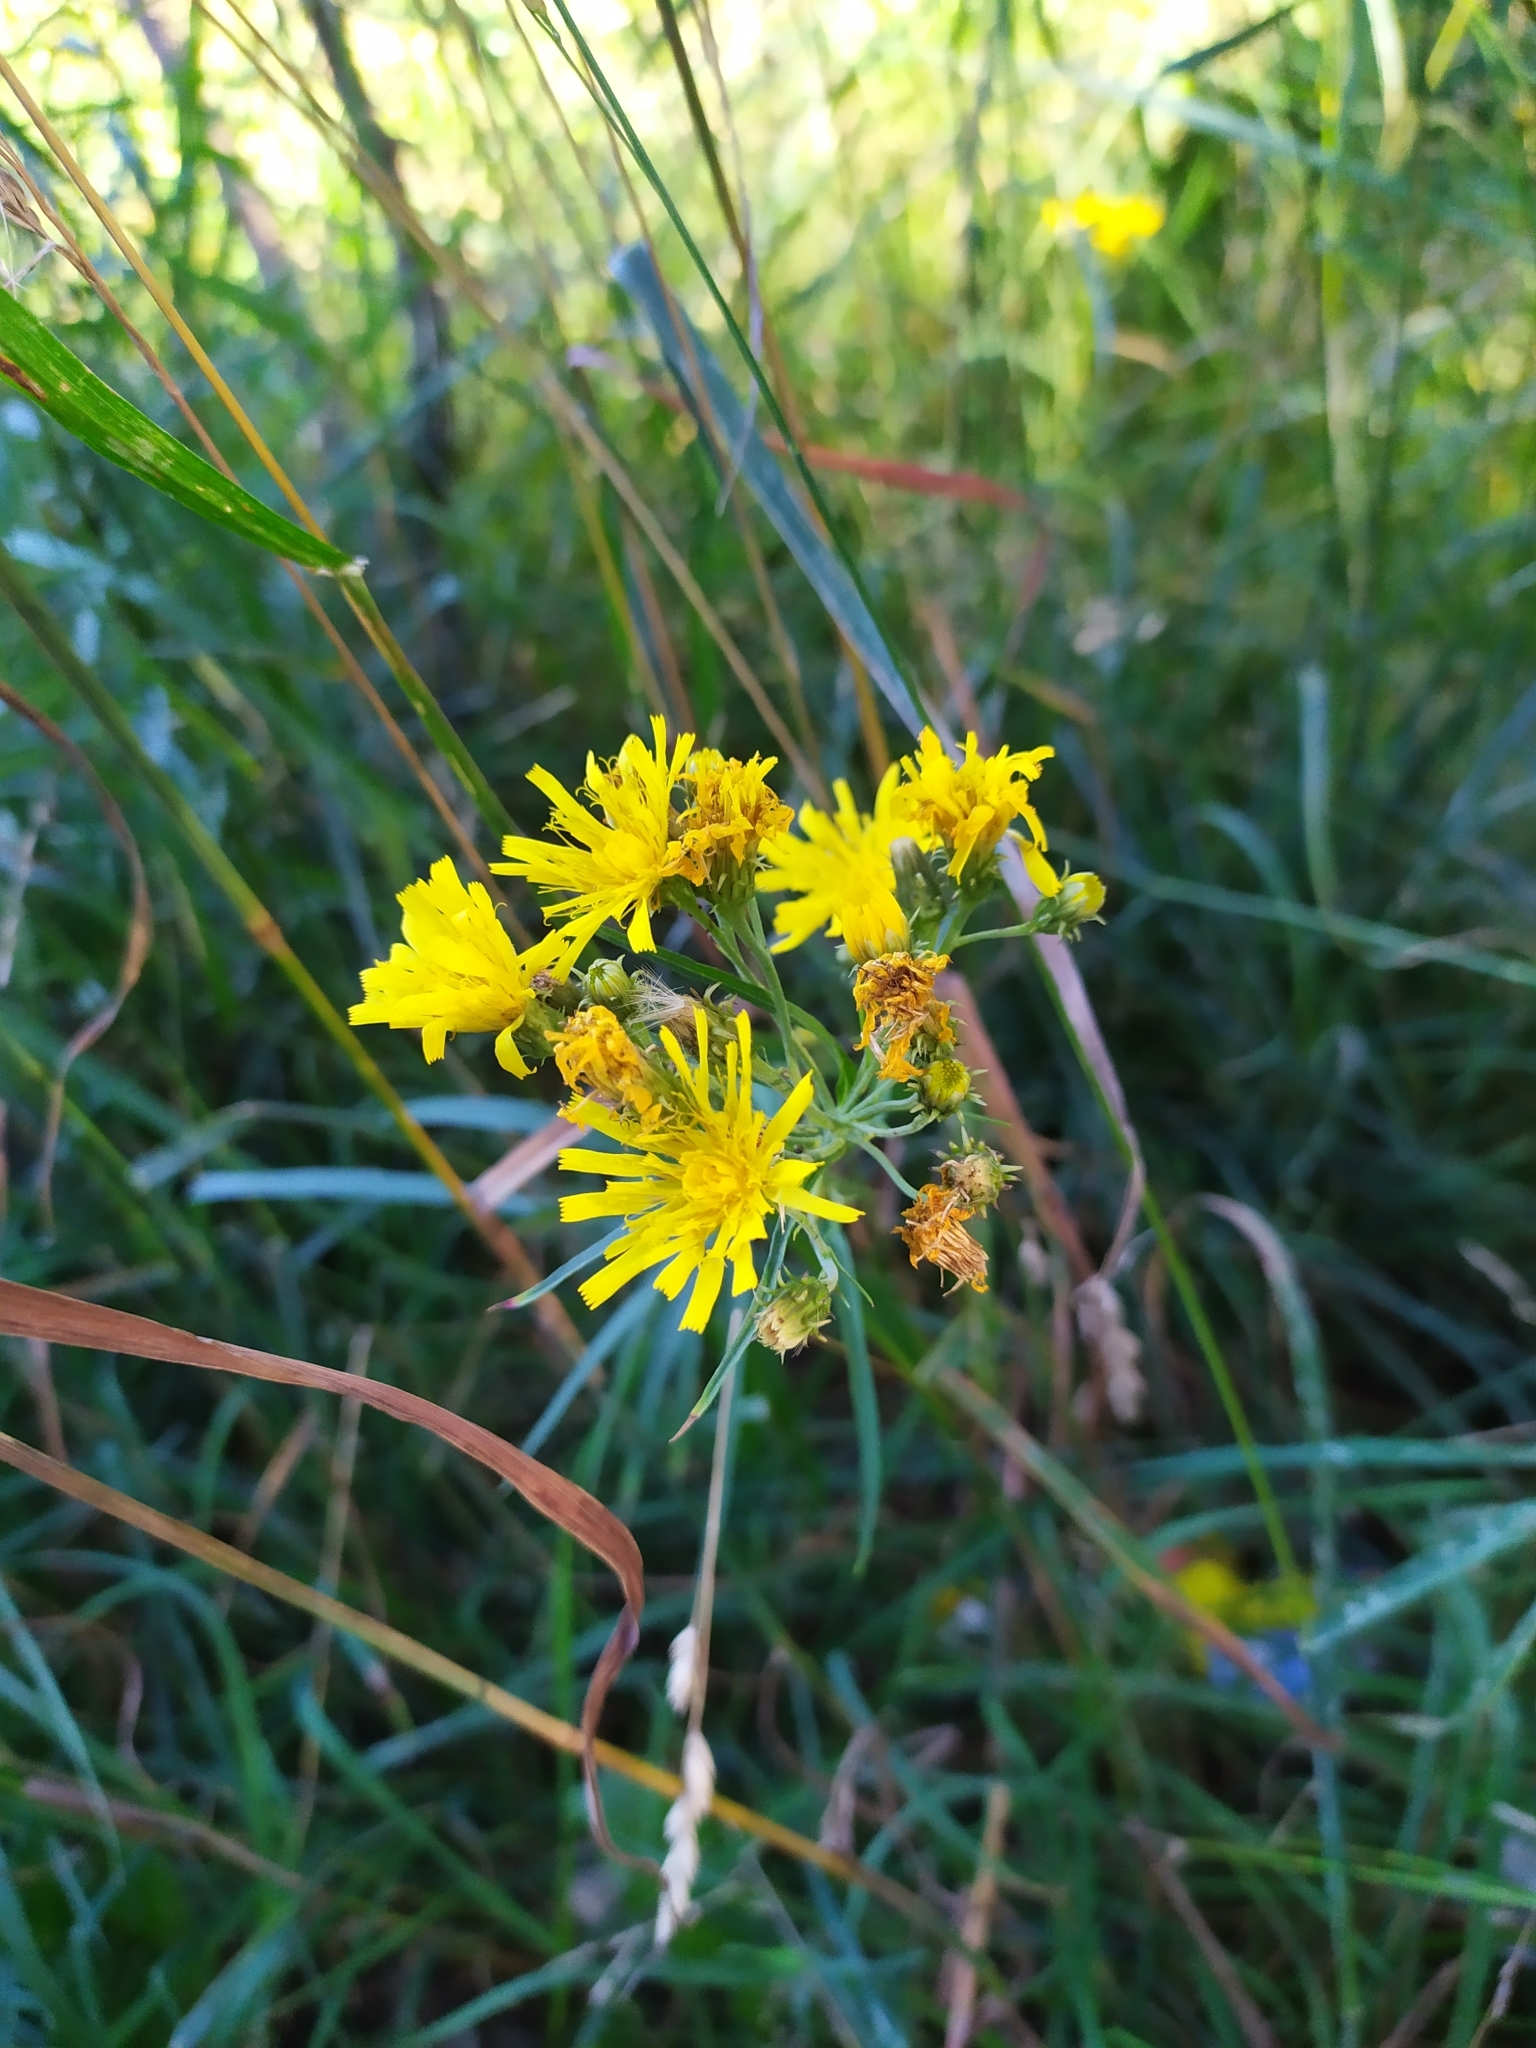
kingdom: Plantae
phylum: Tracheophyta
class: Magnoliopsida
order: Asterales
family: Asteraceae
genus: Hieracium
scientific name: Hieracium umbellatum
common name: Northern hawkweed
